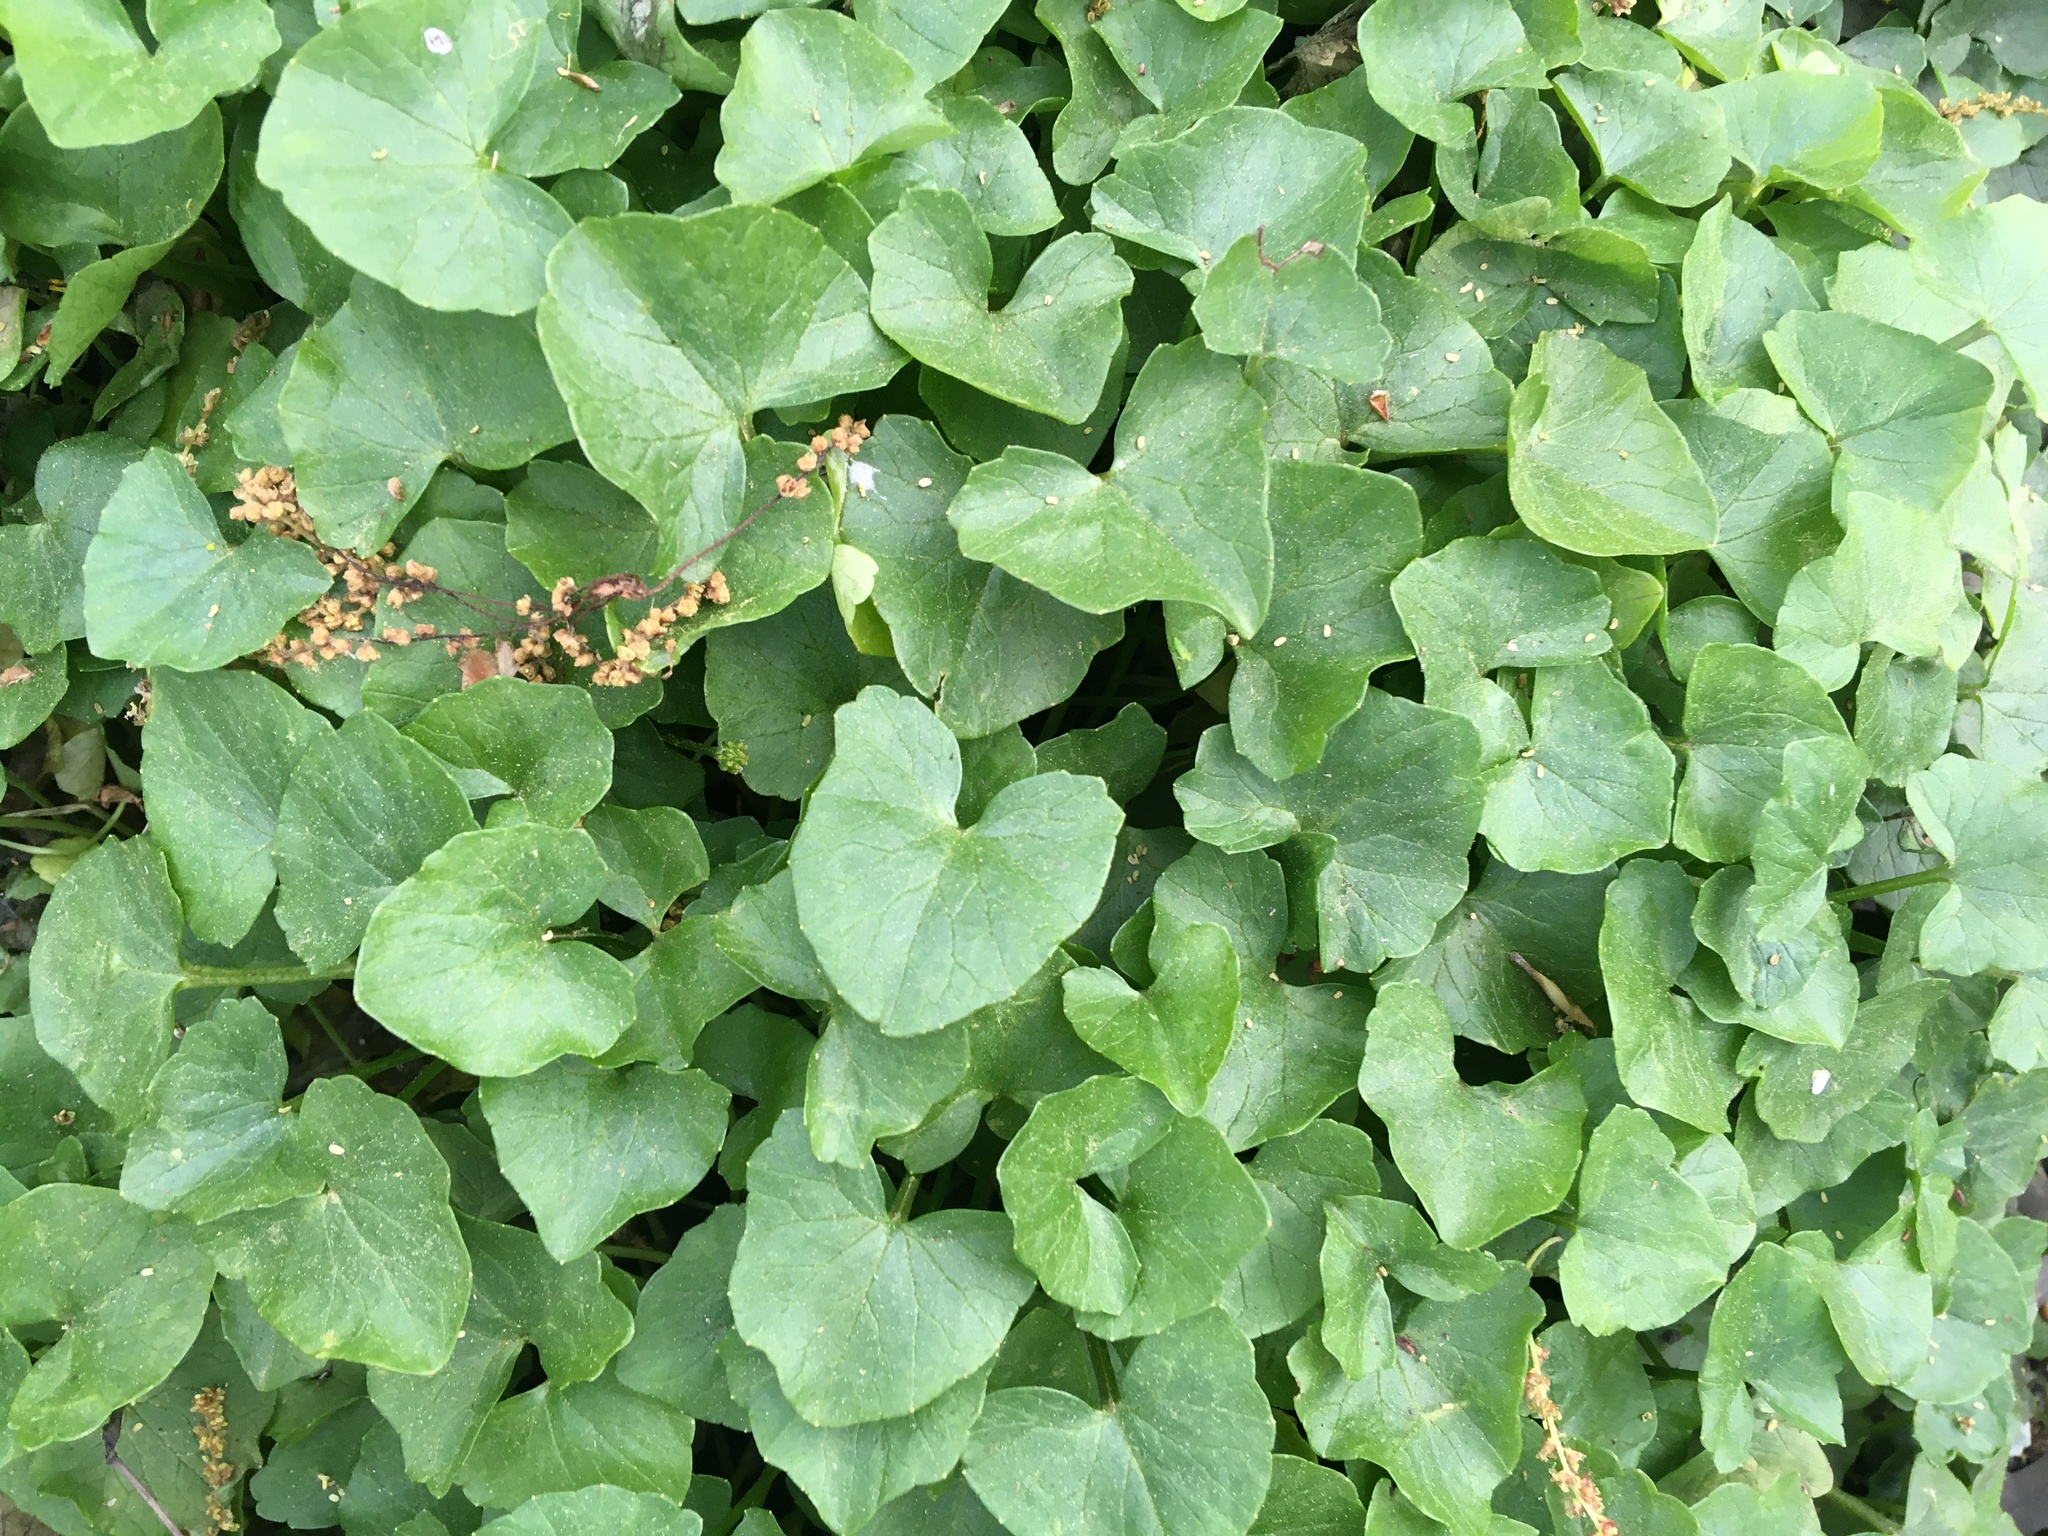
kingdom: Plantae
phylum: Tracheophyta
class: Magnoliopsida
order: Ranunculales
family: Ranunculaceae
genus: Ficaria
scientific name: Ficaria verna
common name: Lesser celandine
